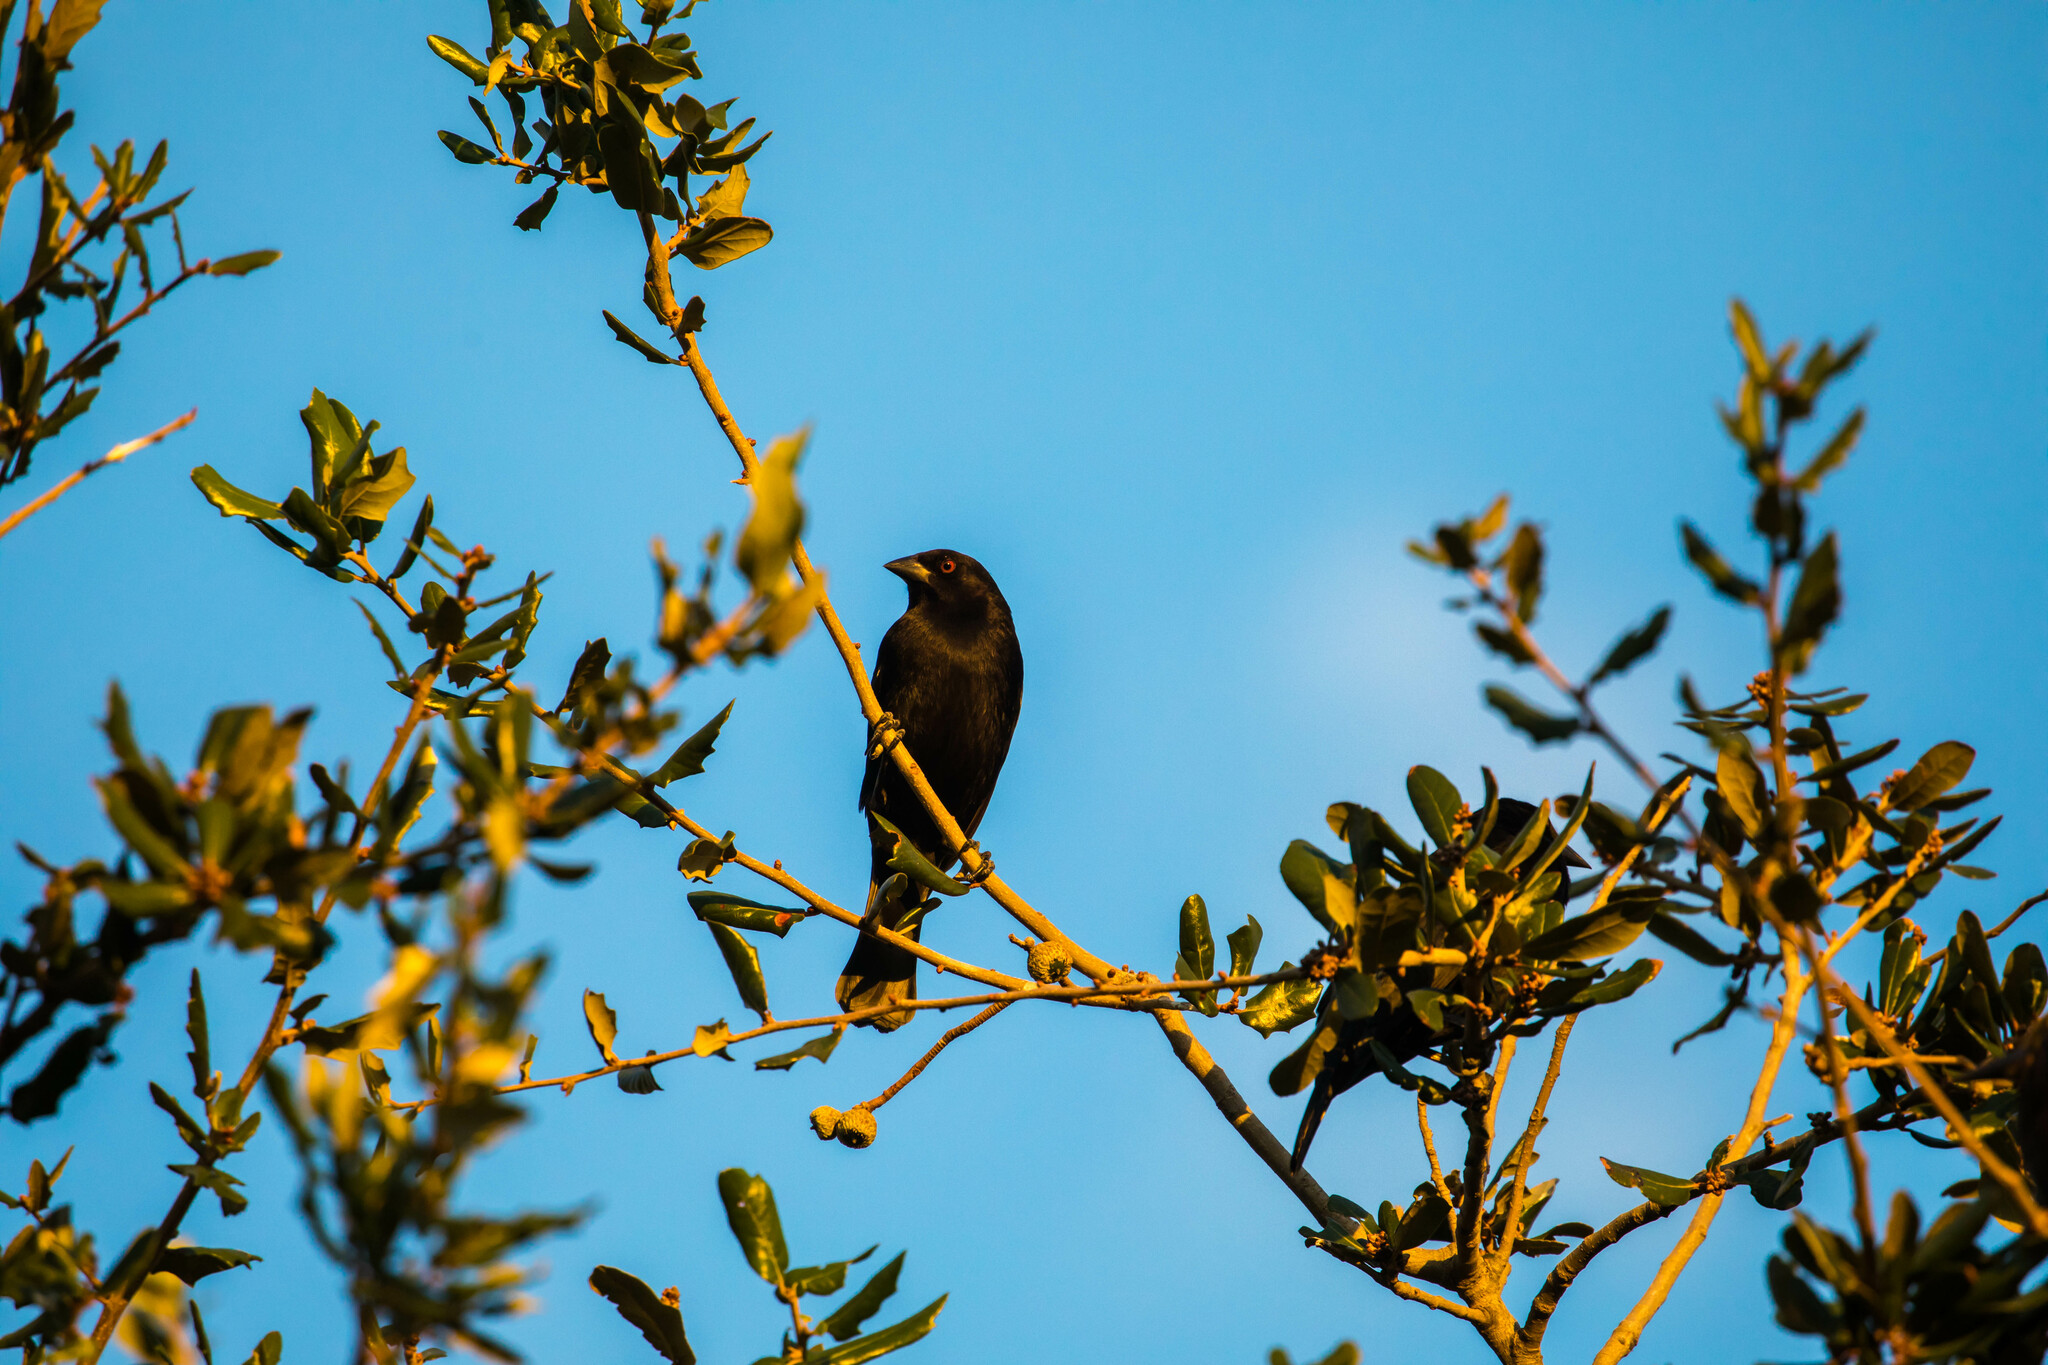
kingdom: Animalia
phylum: Chordata
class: Aves
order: Passeriformes
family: Icteridae
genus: Molothrus
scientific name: Molothrus aeneus
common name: Bronzed cowbird
